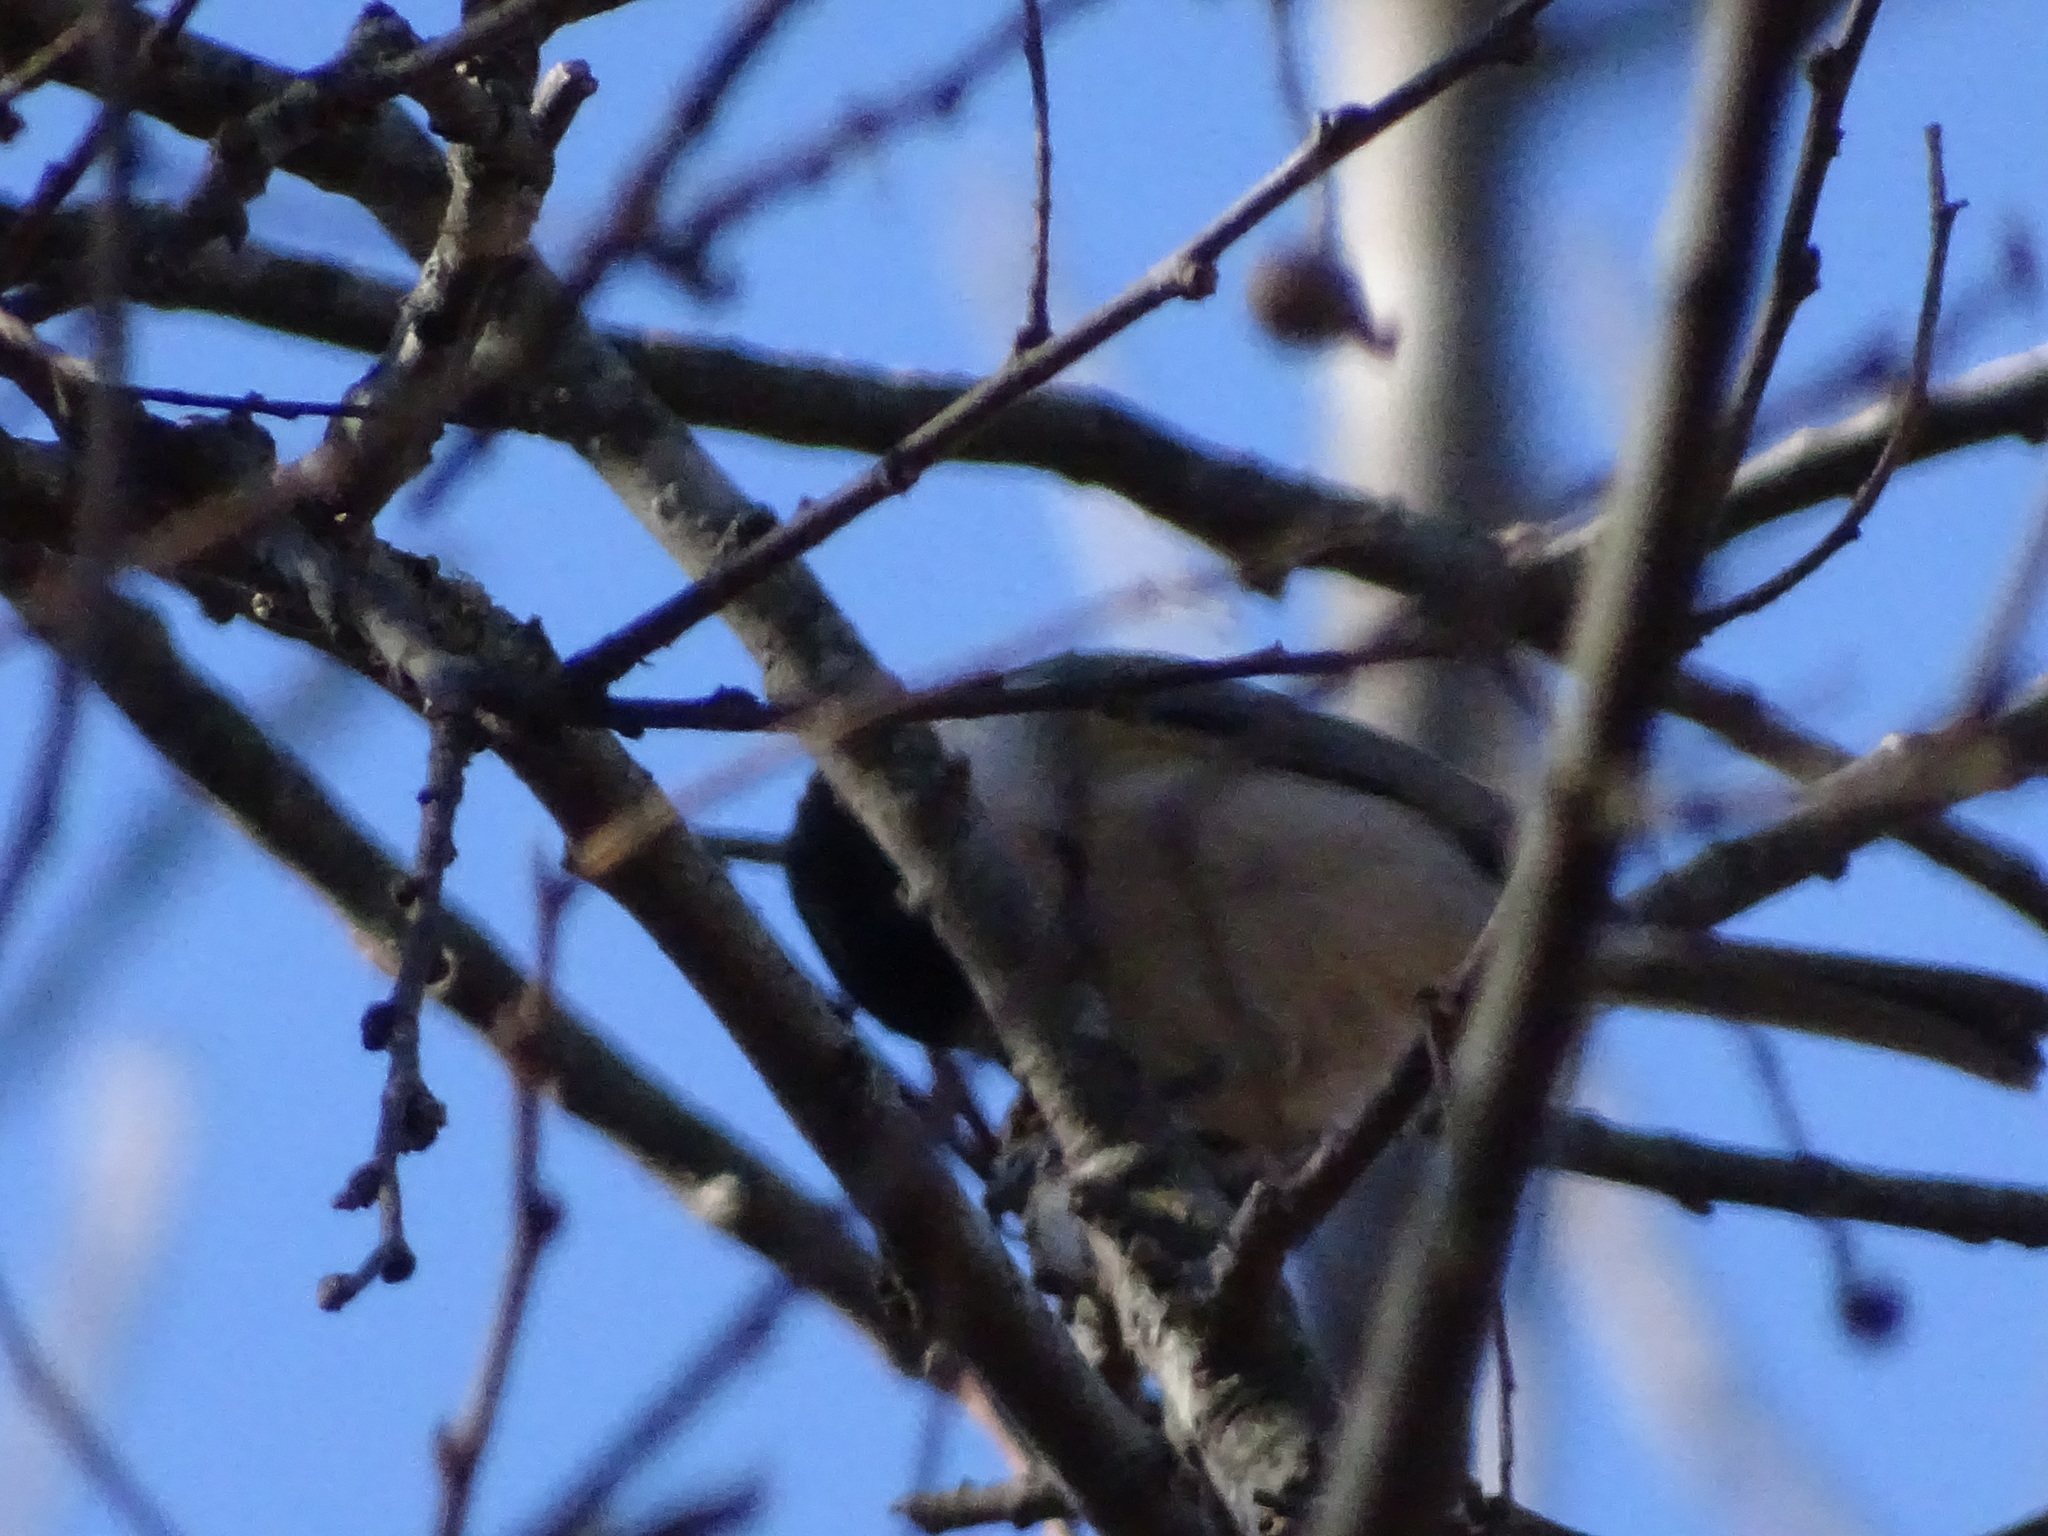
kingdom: Animalia
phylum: Chordata
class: Aves
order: Passeriformes
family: Paridae
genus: Poecile
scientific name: Poecile carolinensis
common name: Carolina chickadee
